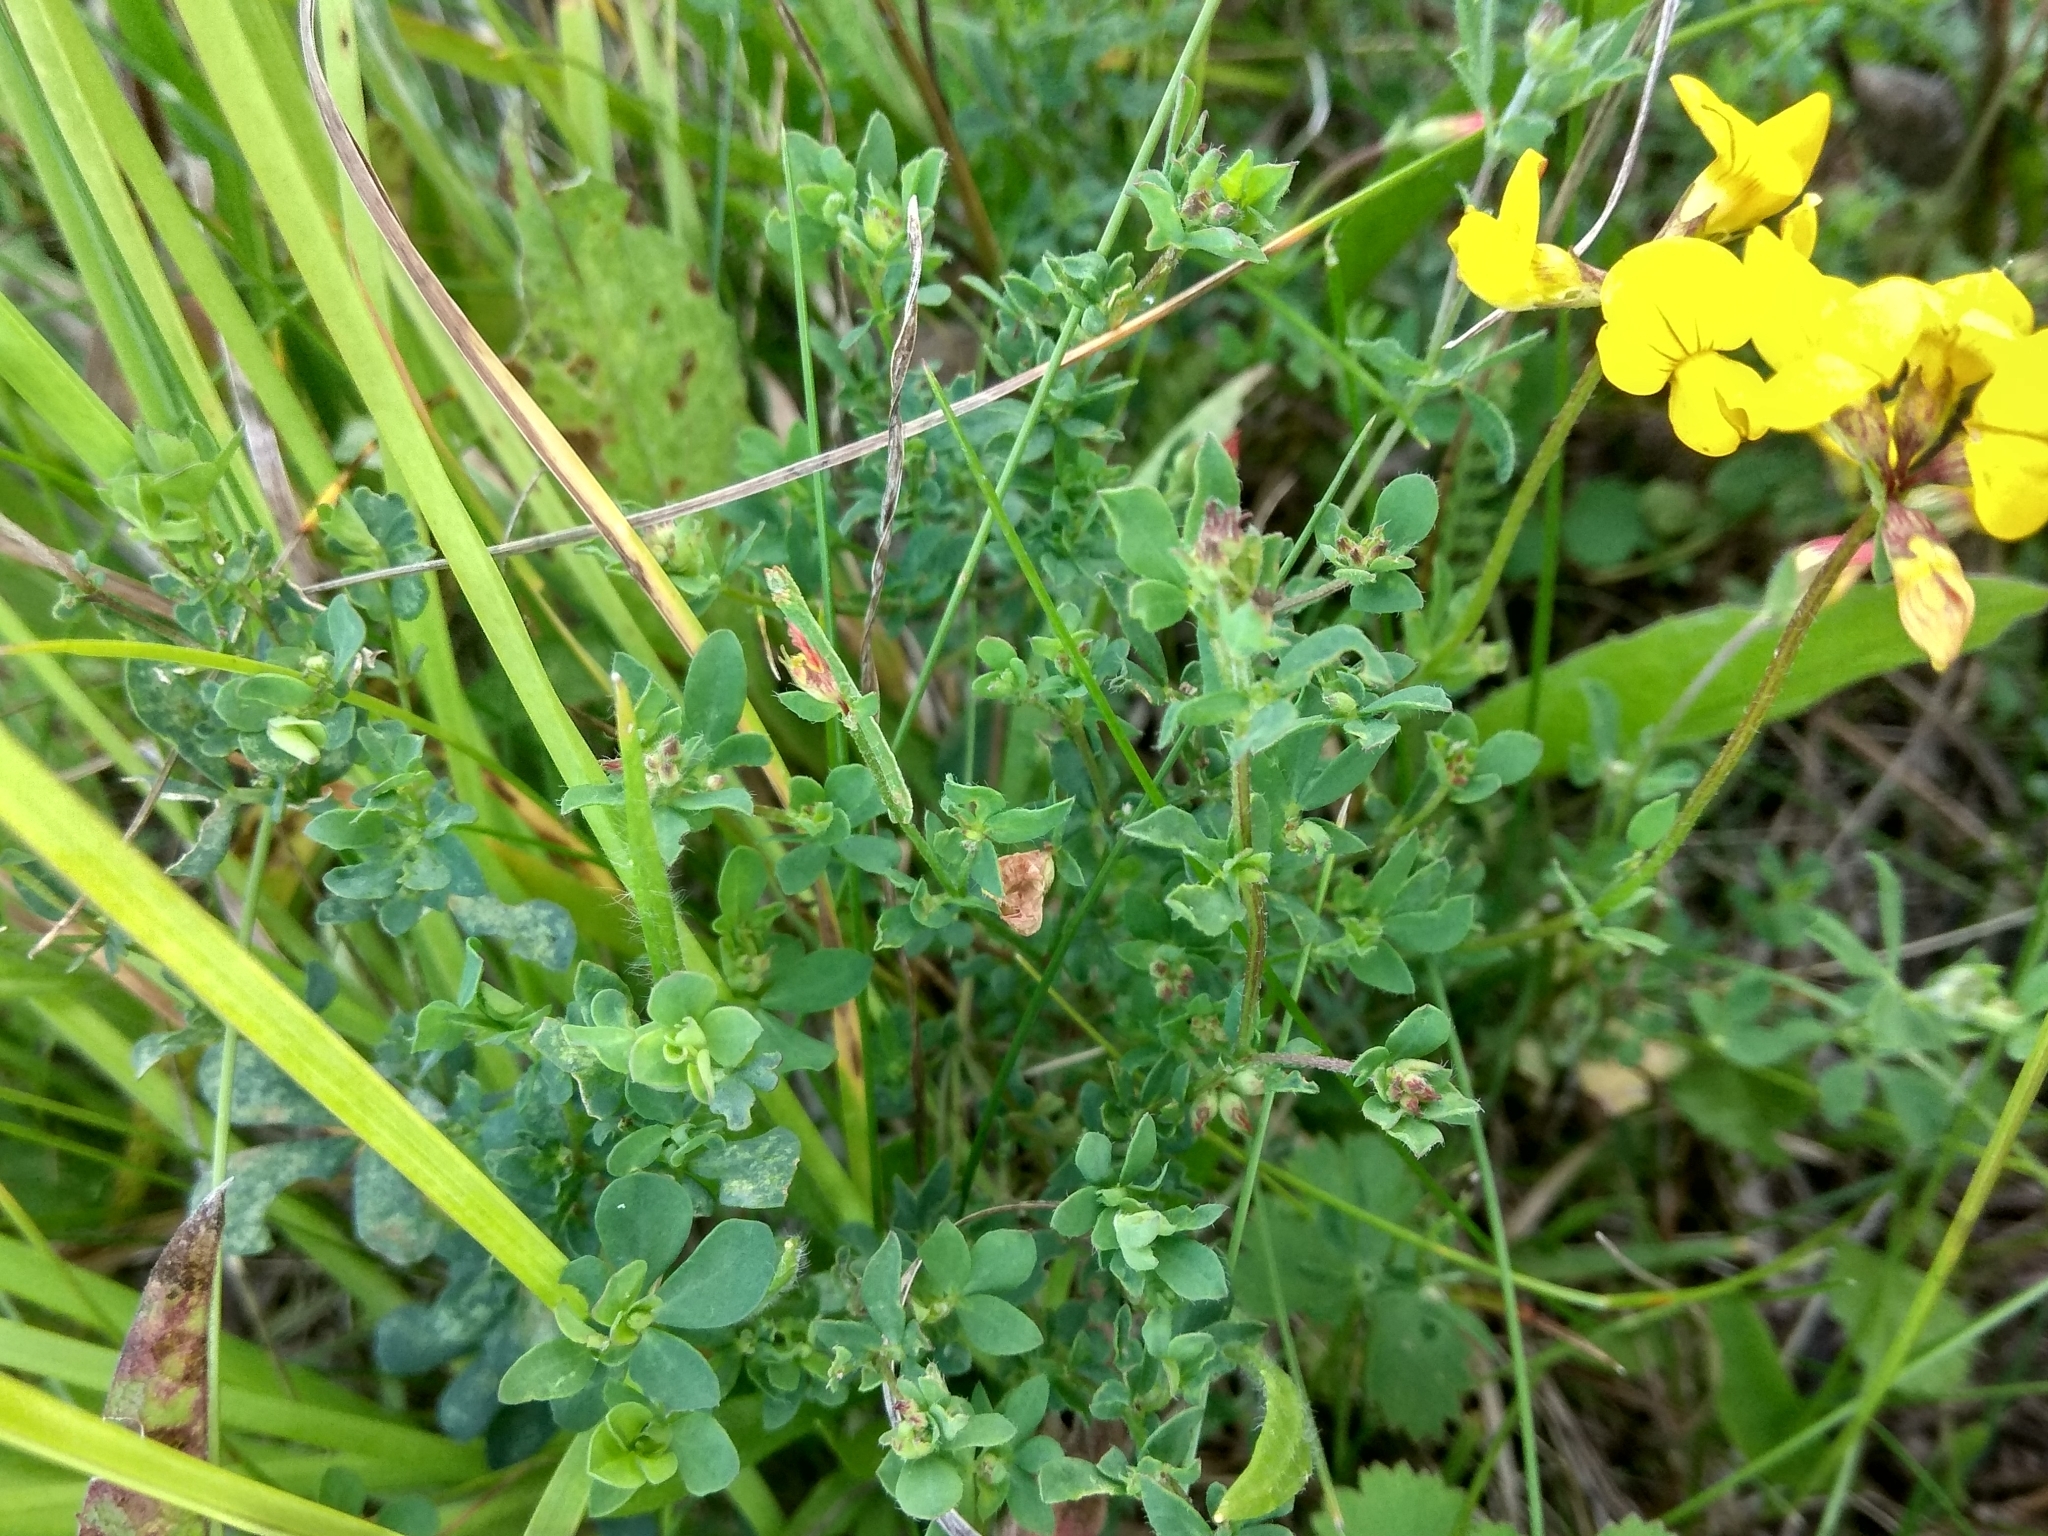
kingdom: Plantae
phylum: Tracheophyta
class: Magnoliopsida
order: Fabales
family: Fabaceae
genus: Lotus
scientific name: Lotus corniculatus
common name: Common bird's-foot-trefoil
